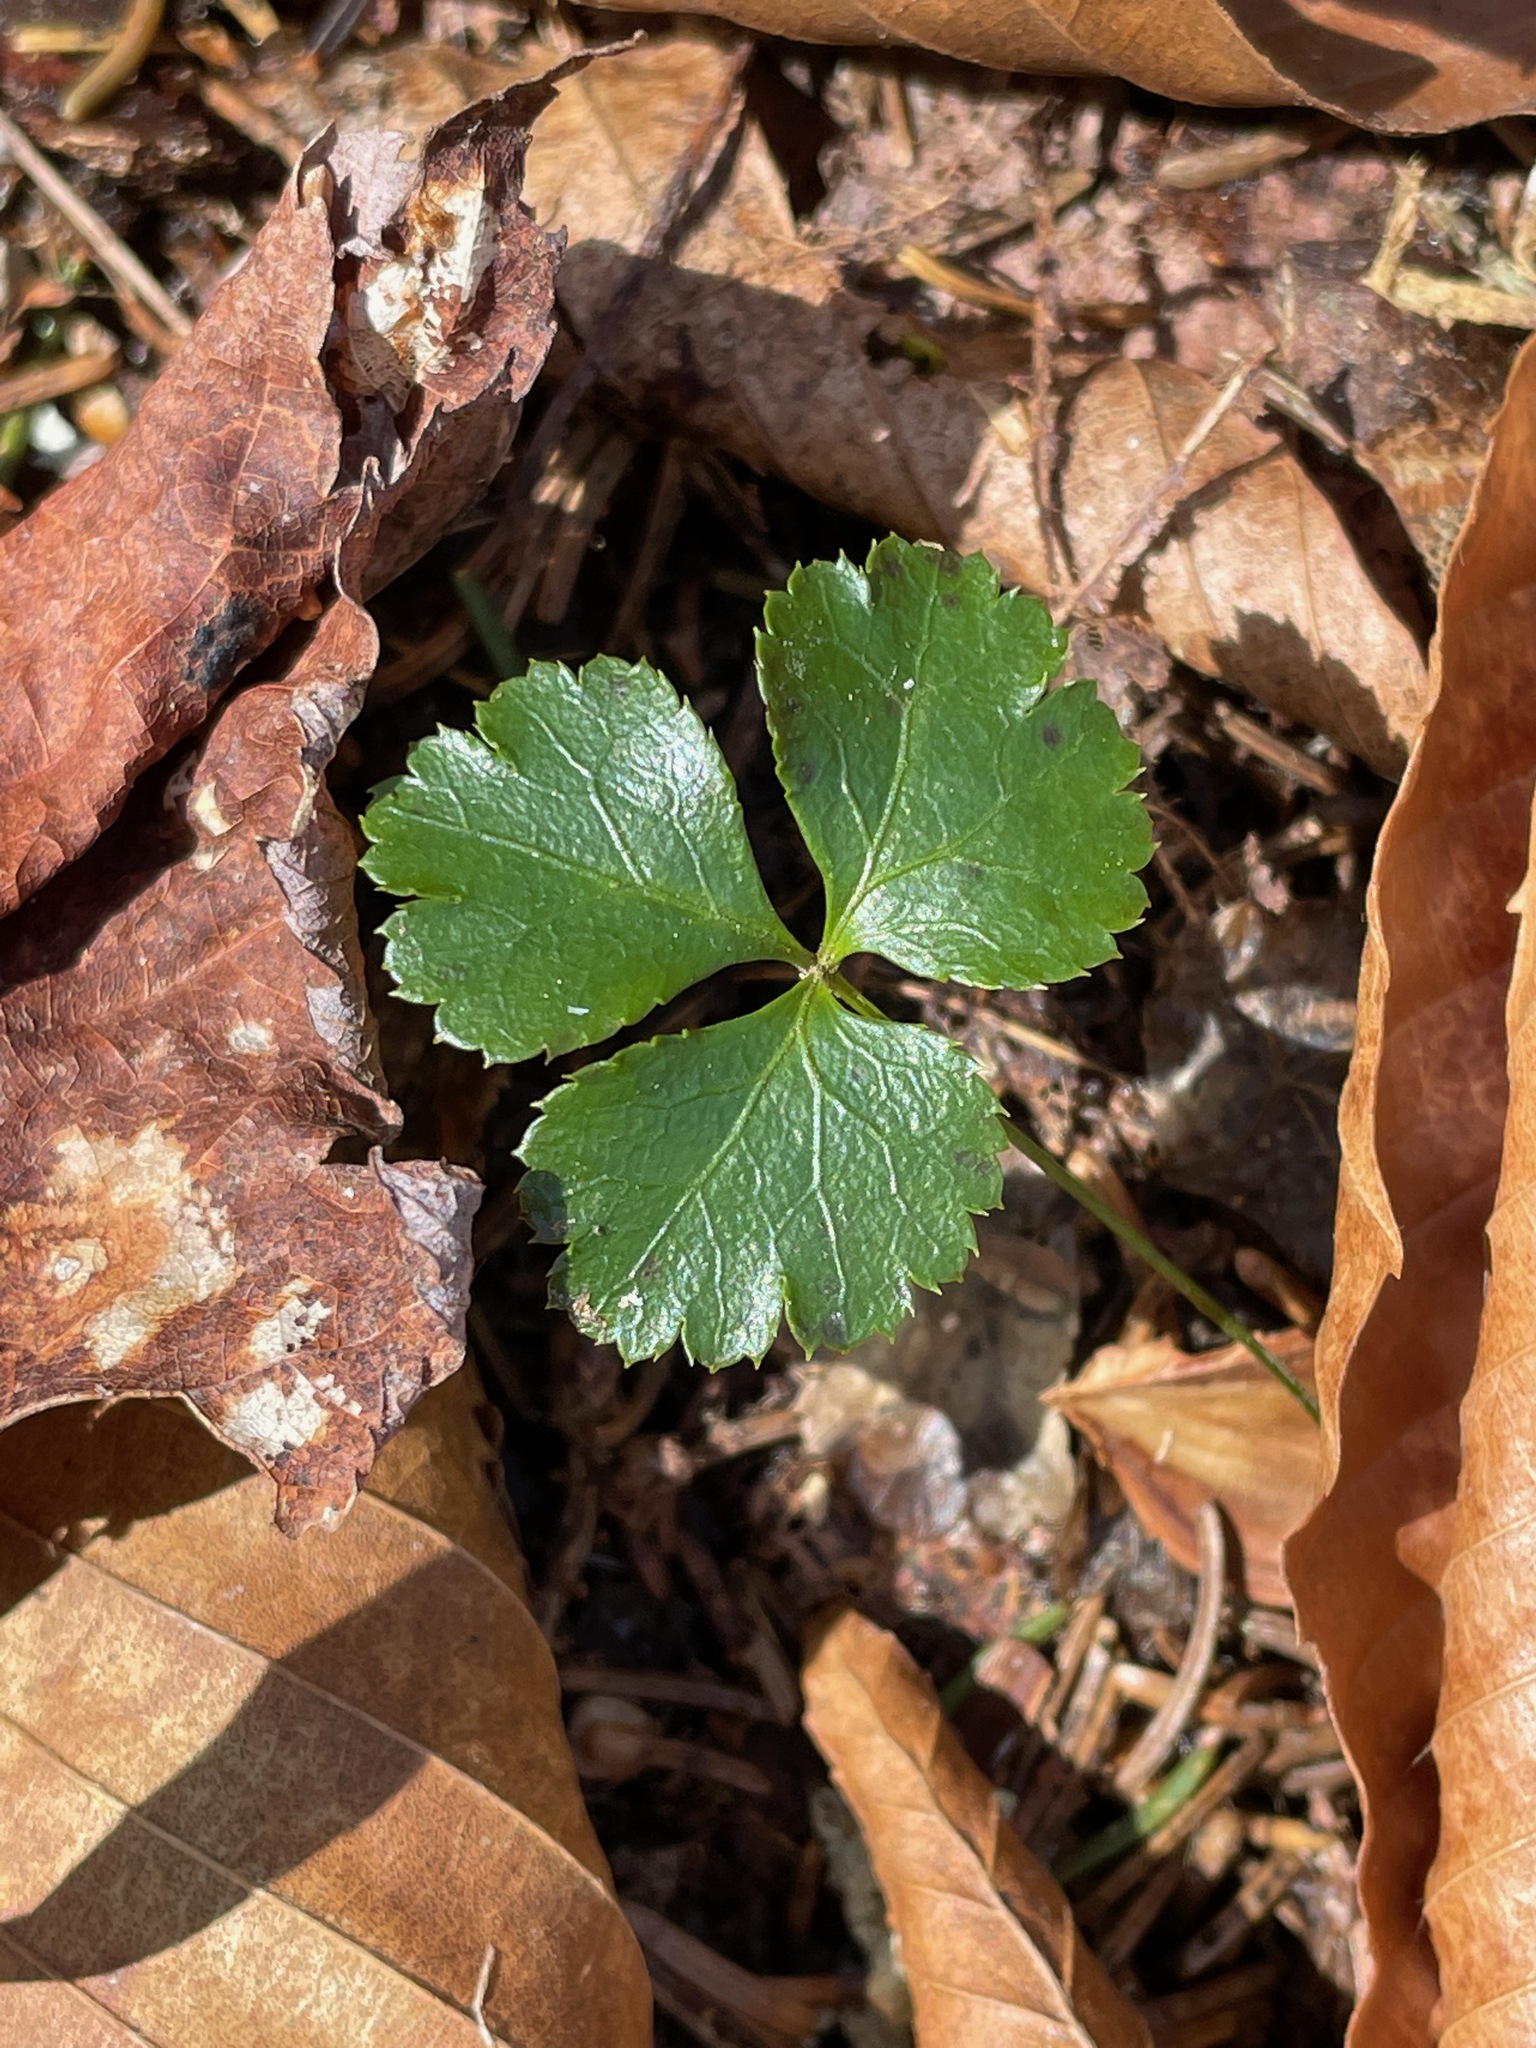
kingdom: Plantae
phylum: Tracheophyta
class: Magnoliopsida
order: Ranunculales
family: Ranunculaceae
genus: Coptis
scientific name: Coptis trifolia
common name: Canker-root
